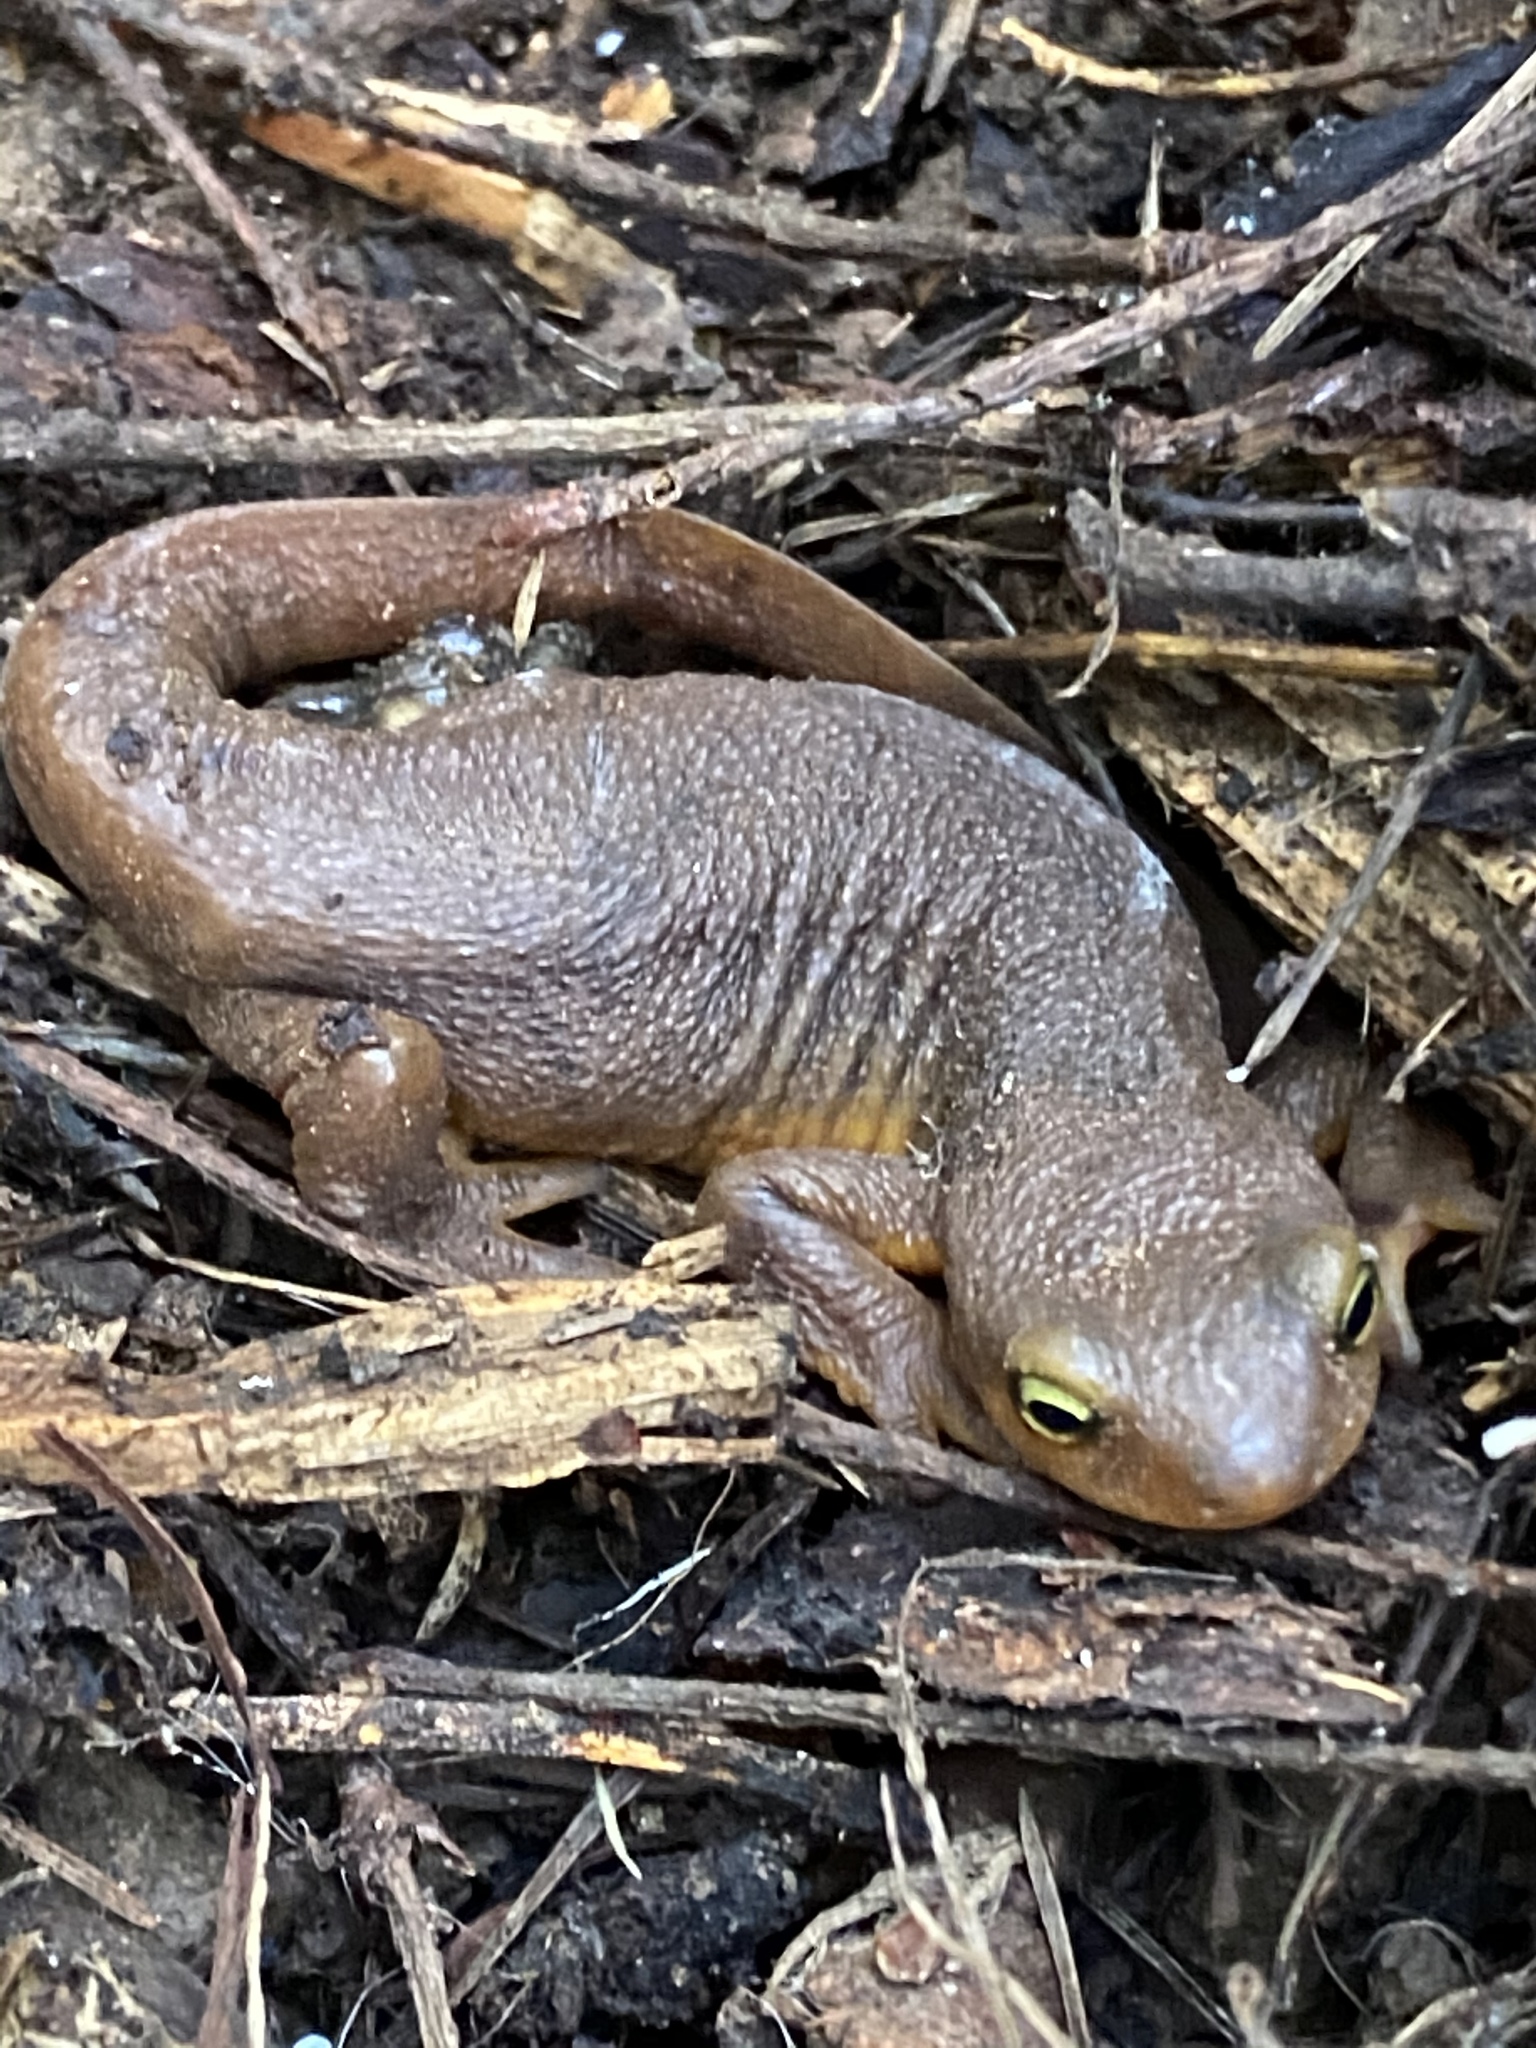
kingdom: Animalia
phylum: Chordata
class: Amphibia
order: Caudata
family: Salamandridae
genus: Taricha
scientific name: Taricha torosa
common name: California newt
